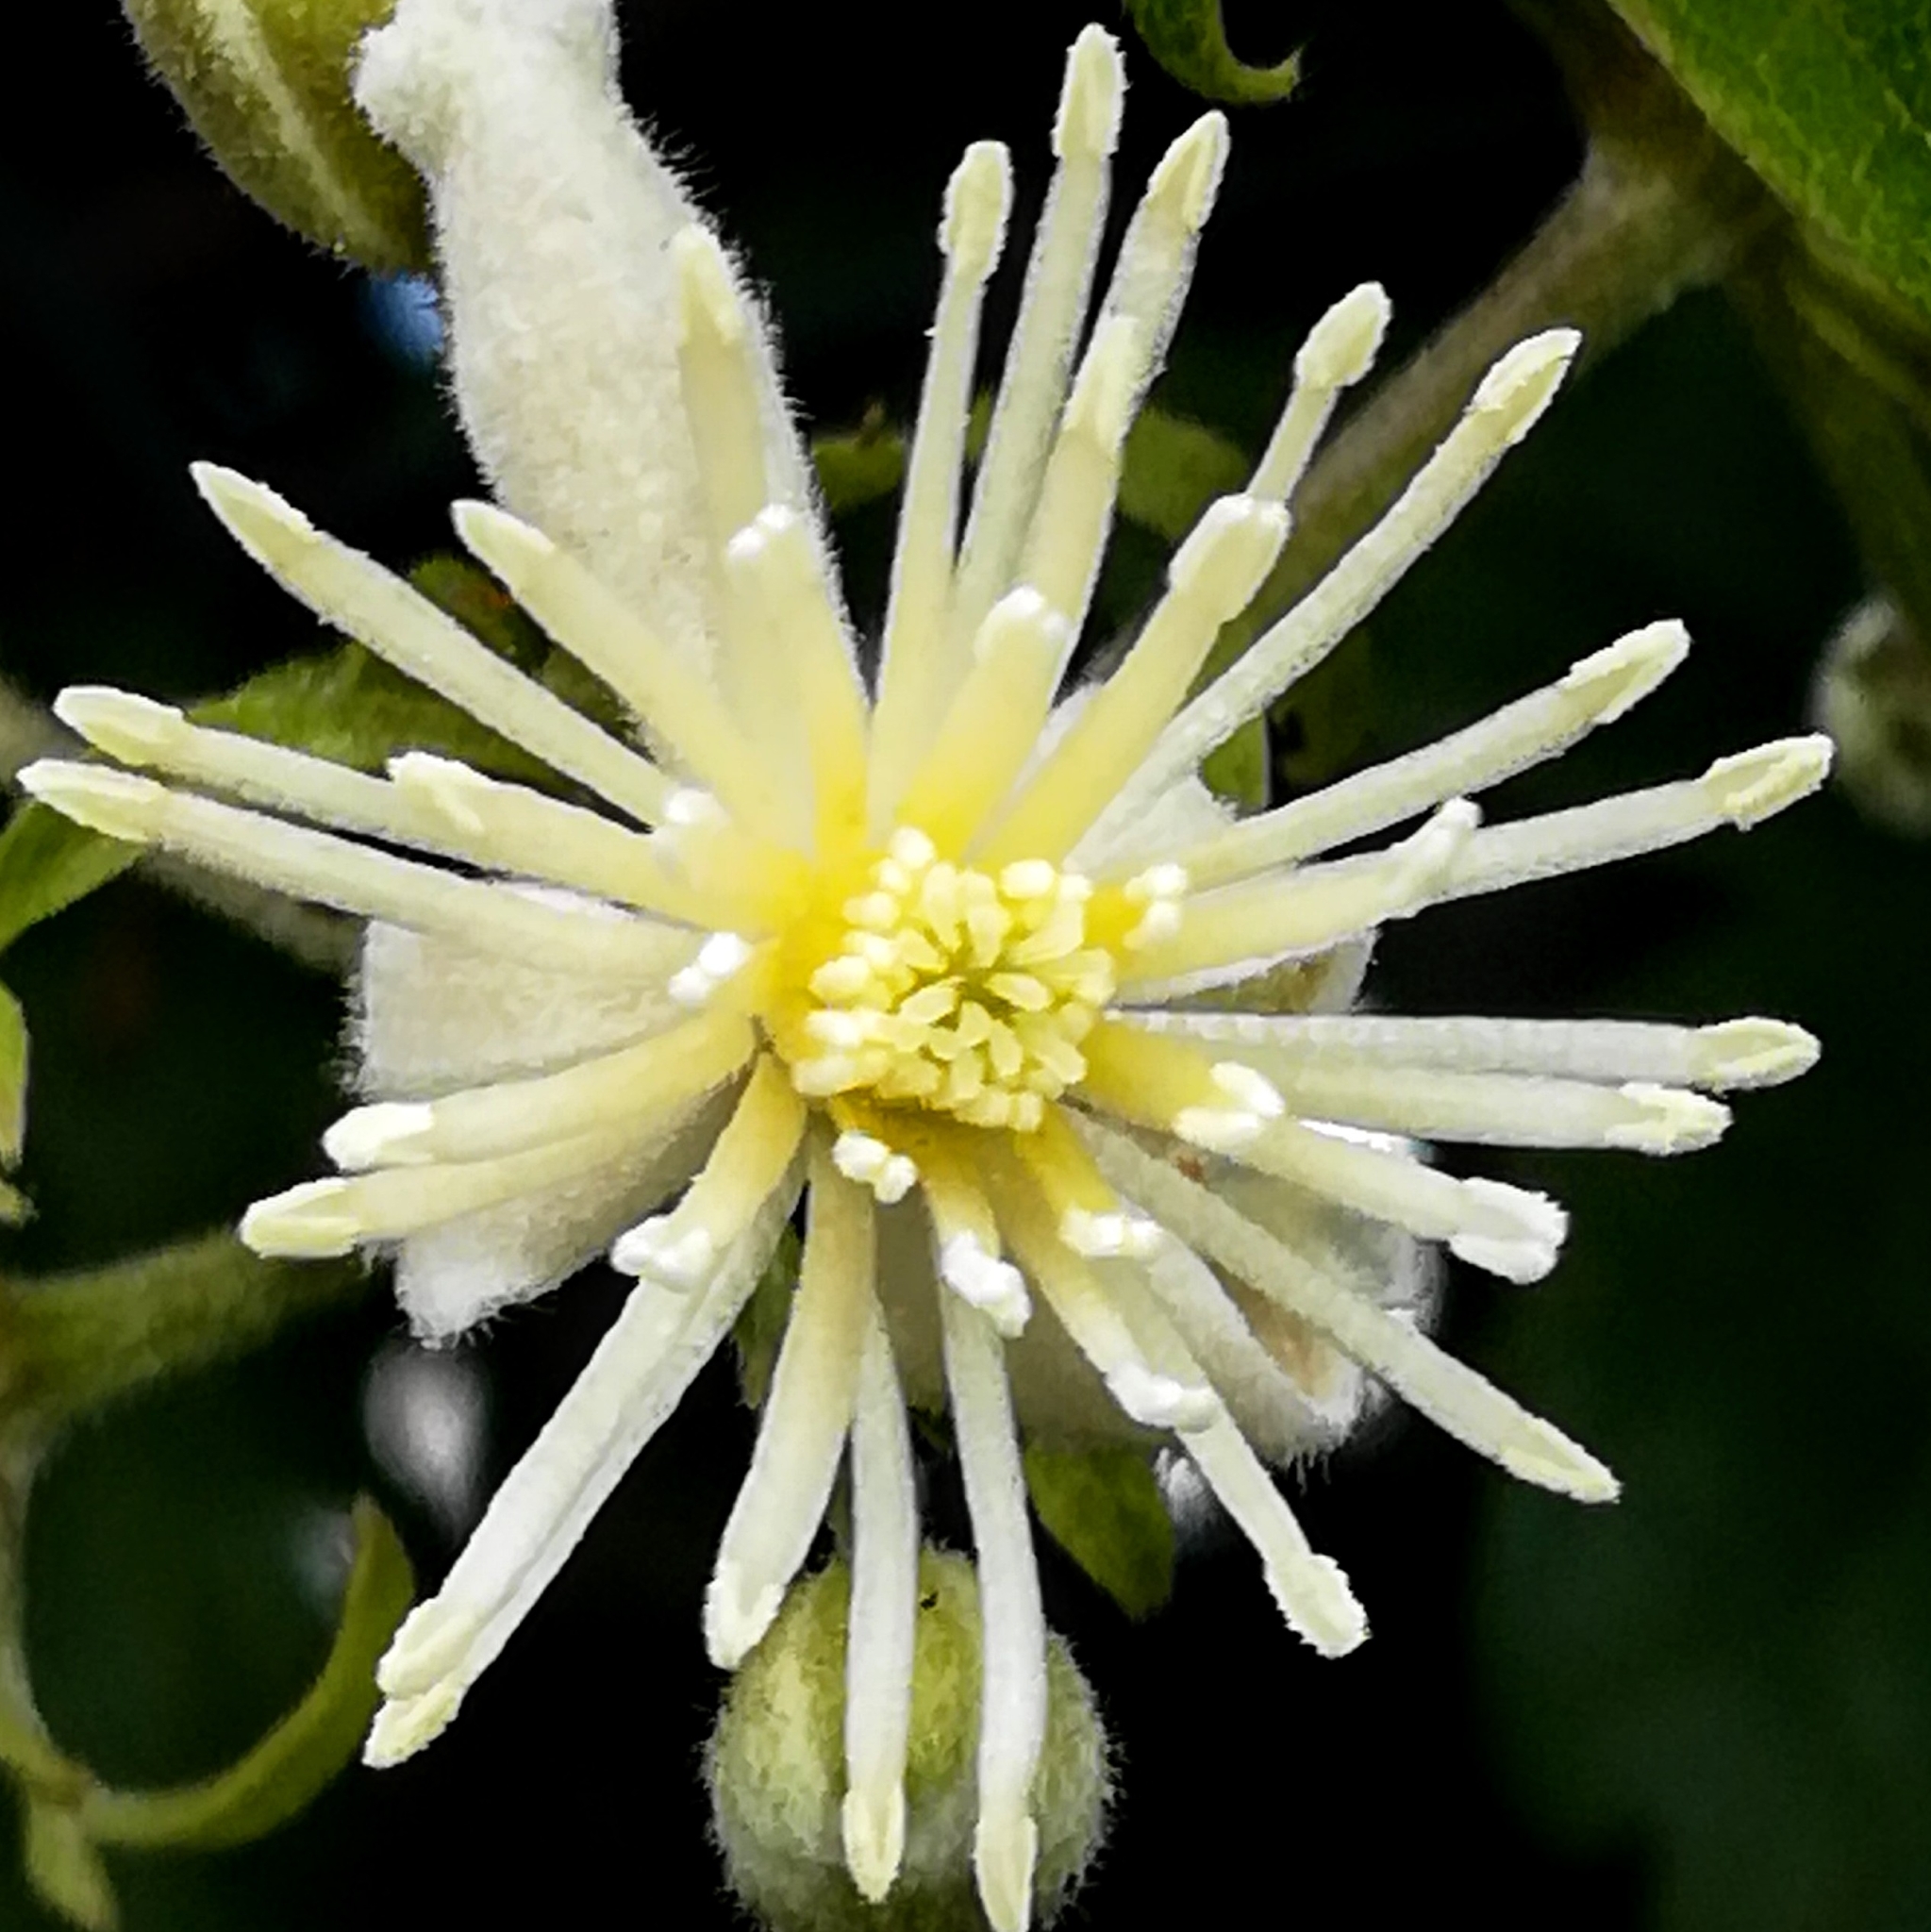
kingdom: Plantae
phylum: Tracheophyta
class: Magnoliopsida
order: Ranunculales
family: Ranunculaceae
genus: Clematis
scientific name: Clematis vitalba
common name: Evergreen clematis
